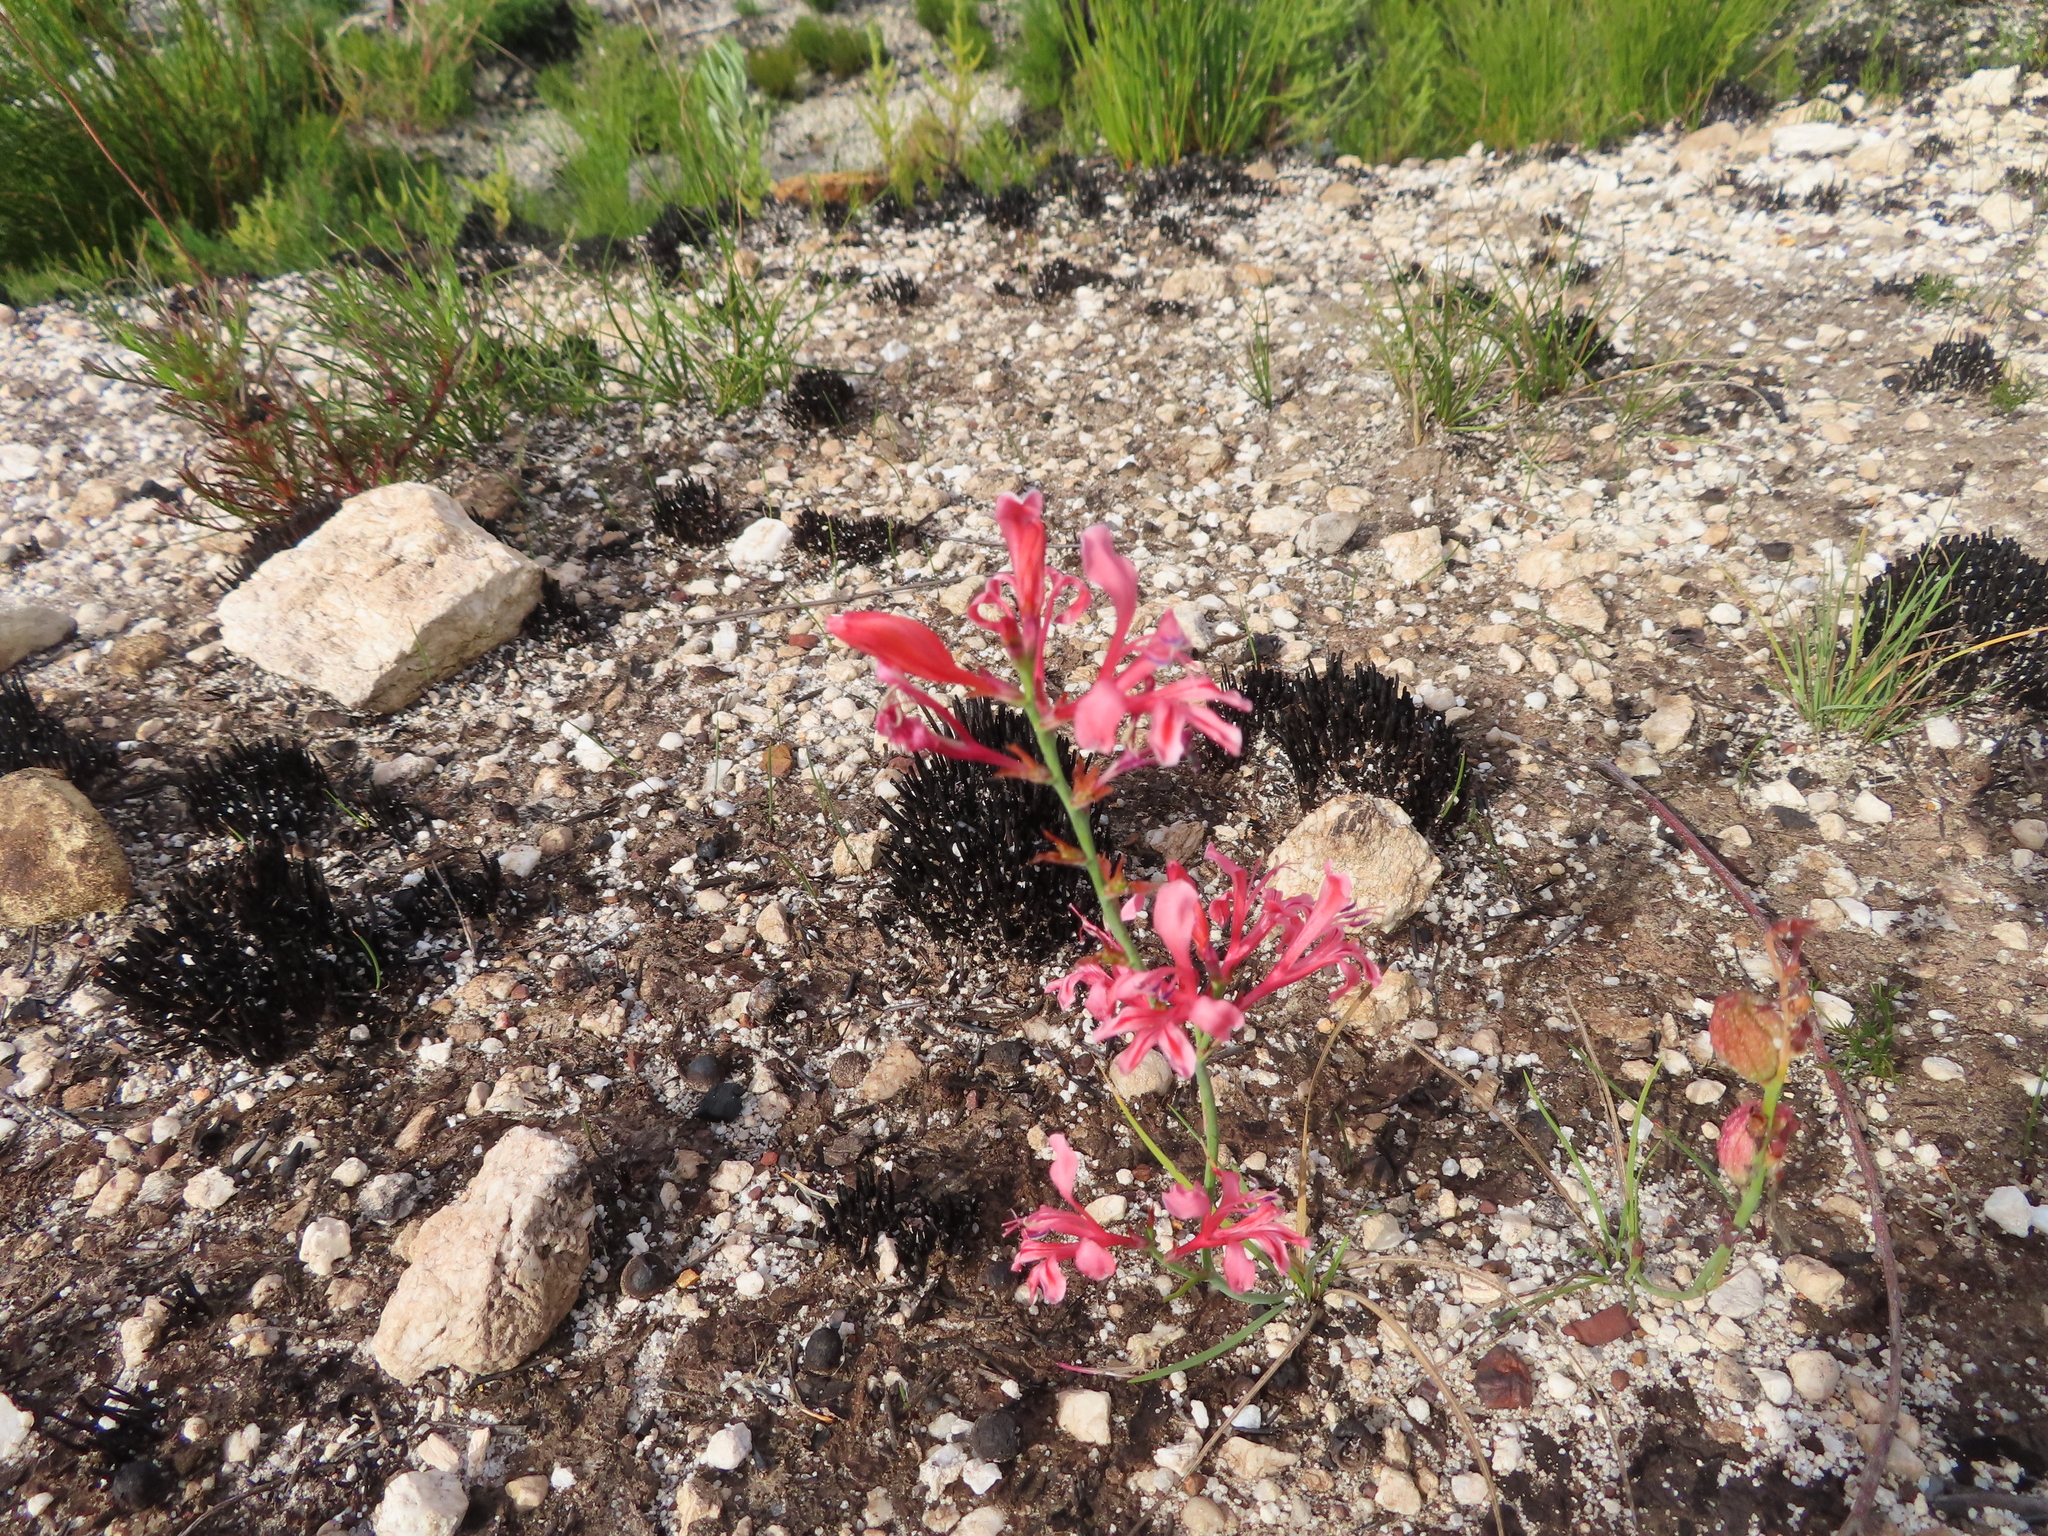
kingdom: Plantae
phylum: Tracheophyta
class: Liliopsida
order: Asparagales
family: Iridaceae
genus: Tritoniopsis
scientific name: Tritoniopsis lata
